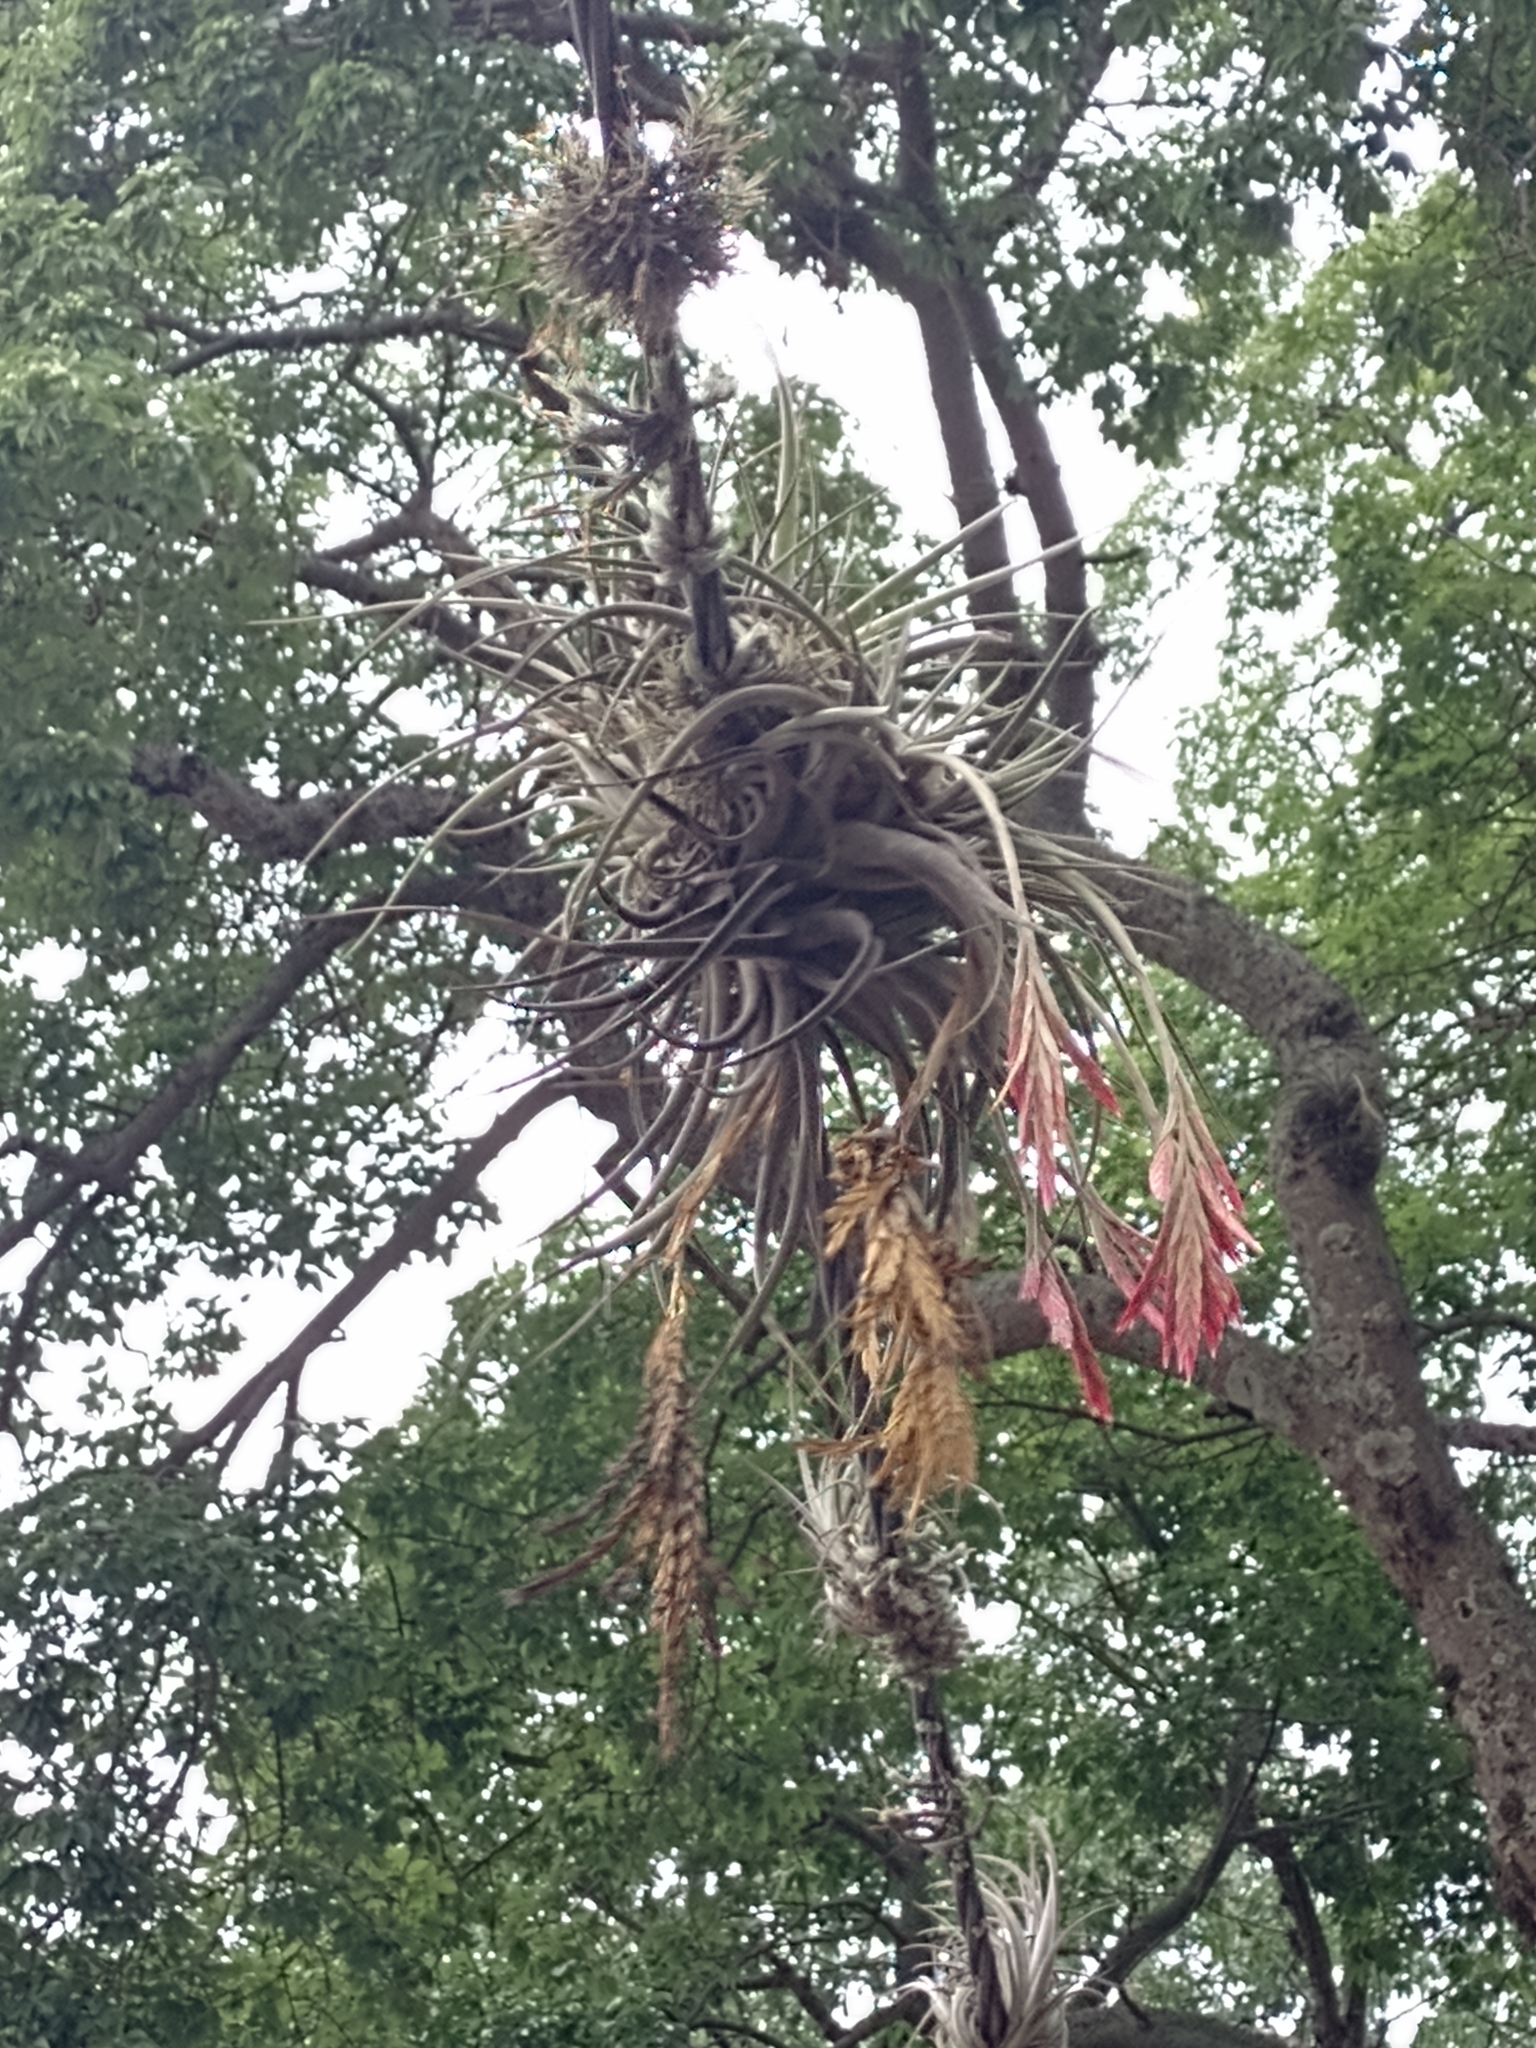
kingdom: Plantae
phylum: Tracheophyta
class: Liliopsida
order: Poales
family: Bromeliaceae
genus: Tillandsia
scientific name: Tillandsia didisticha
